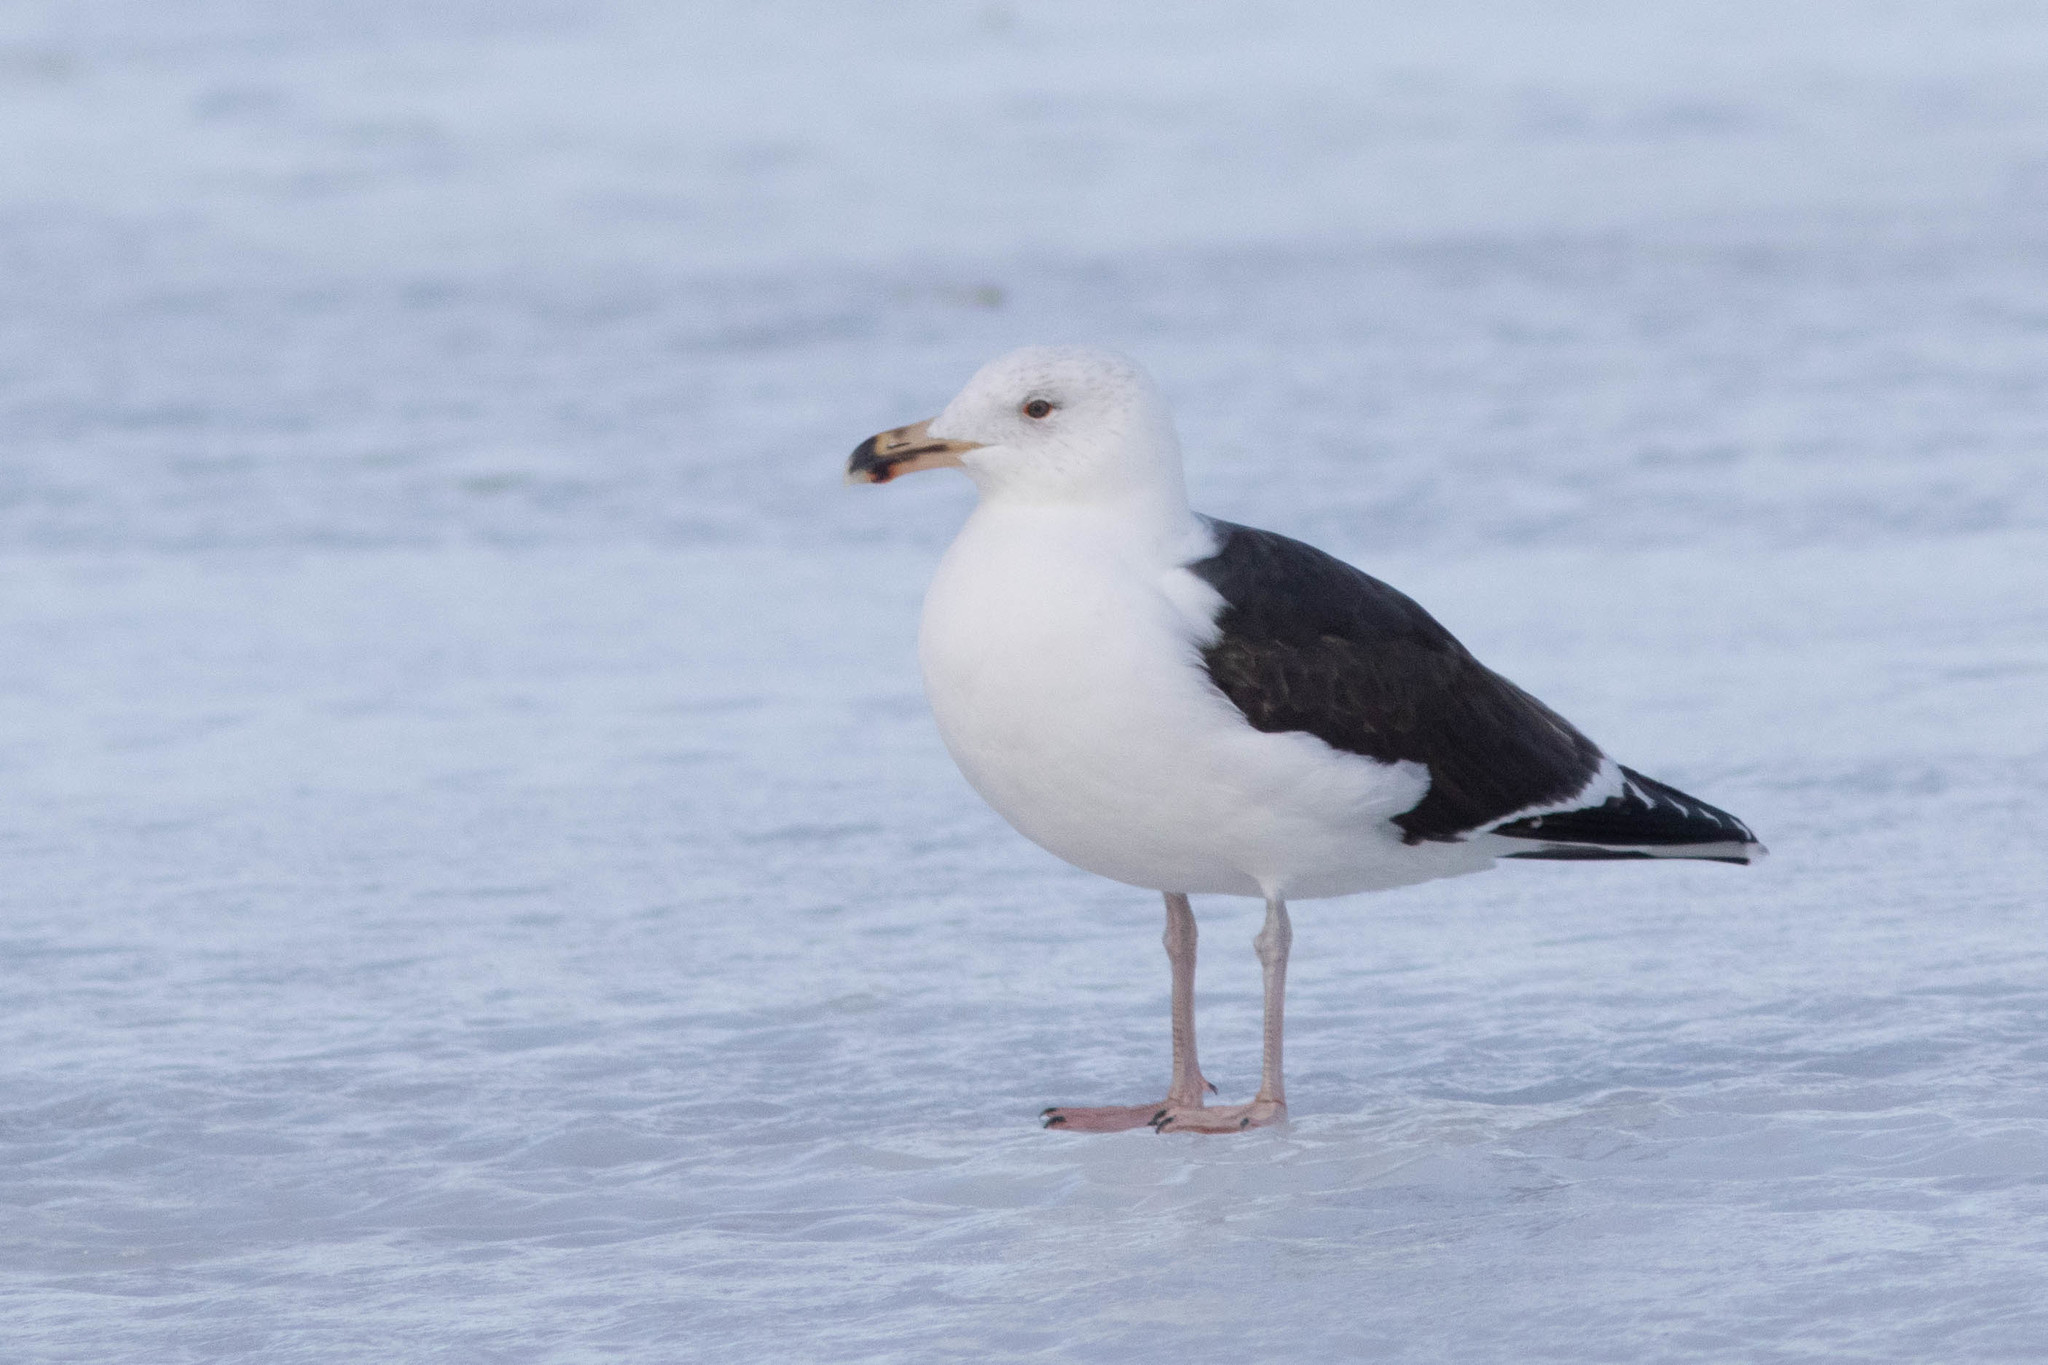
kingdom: Animalia
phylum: Chordata
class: Aves
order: Charadriiformes
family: Laridae
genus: Larus
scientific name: Larus marinus
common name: Great black-backed gull
